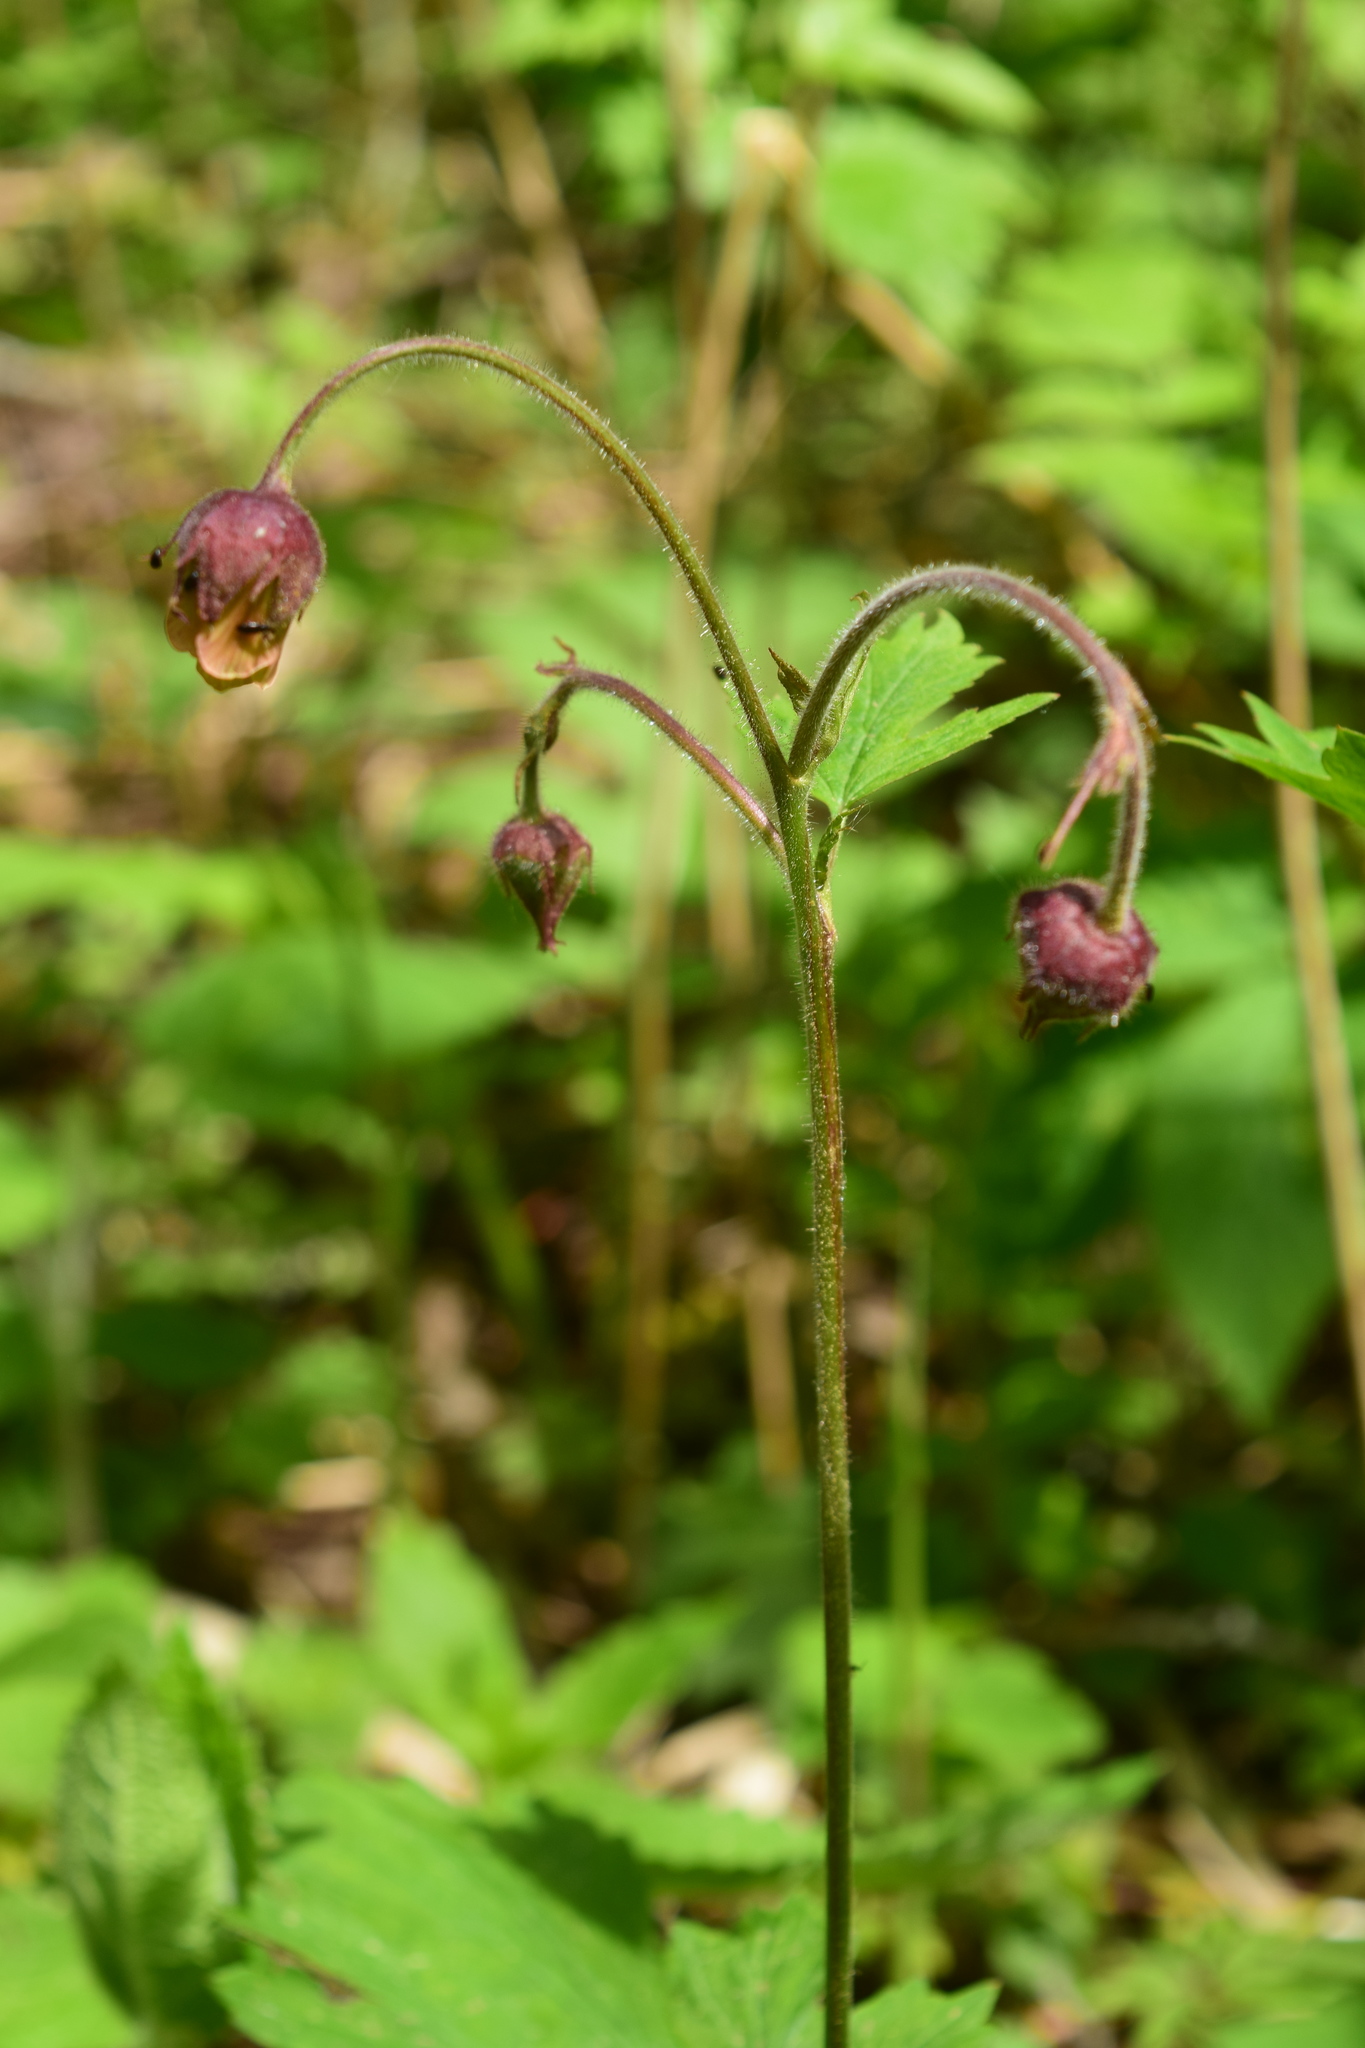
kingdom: Plantae
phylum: Tracheophyta
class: Magnoliopsida
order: Rosales
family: Rosaceae
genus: Geum
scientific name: Geum rivale
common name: Water avens
